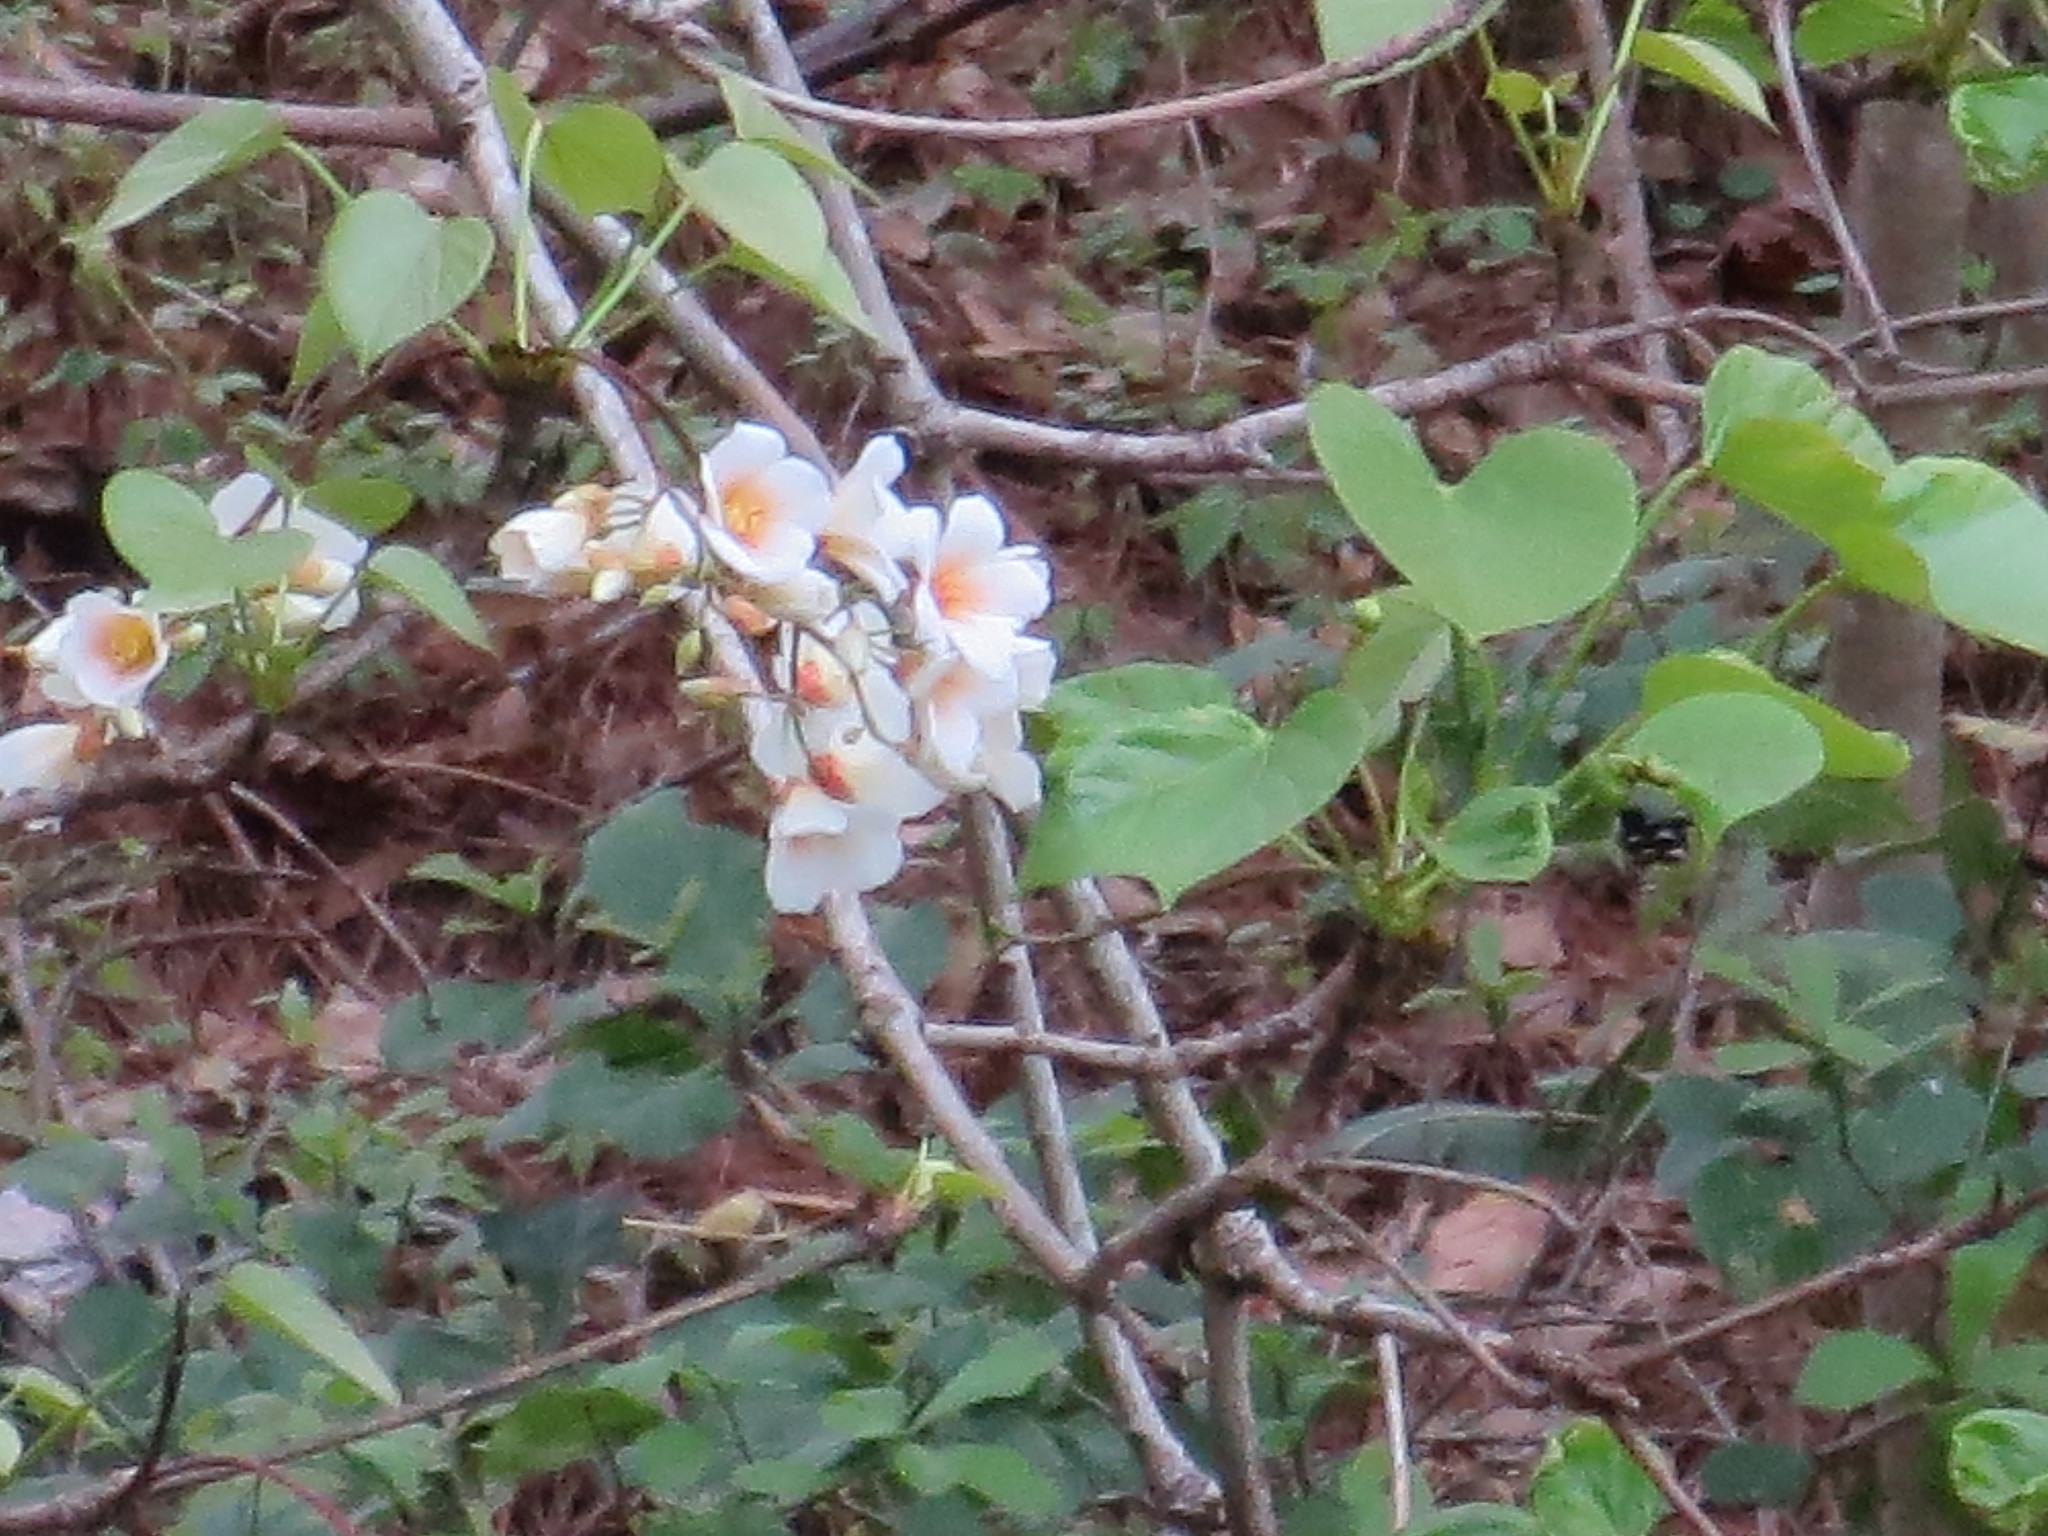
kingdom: Plantae
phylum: Tracheophyta
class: Magnoliopsida
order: Malpighiales
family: Euphorbiaceae
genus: Vernicia
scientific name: Vernicia fordii
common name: Tungoil tree
